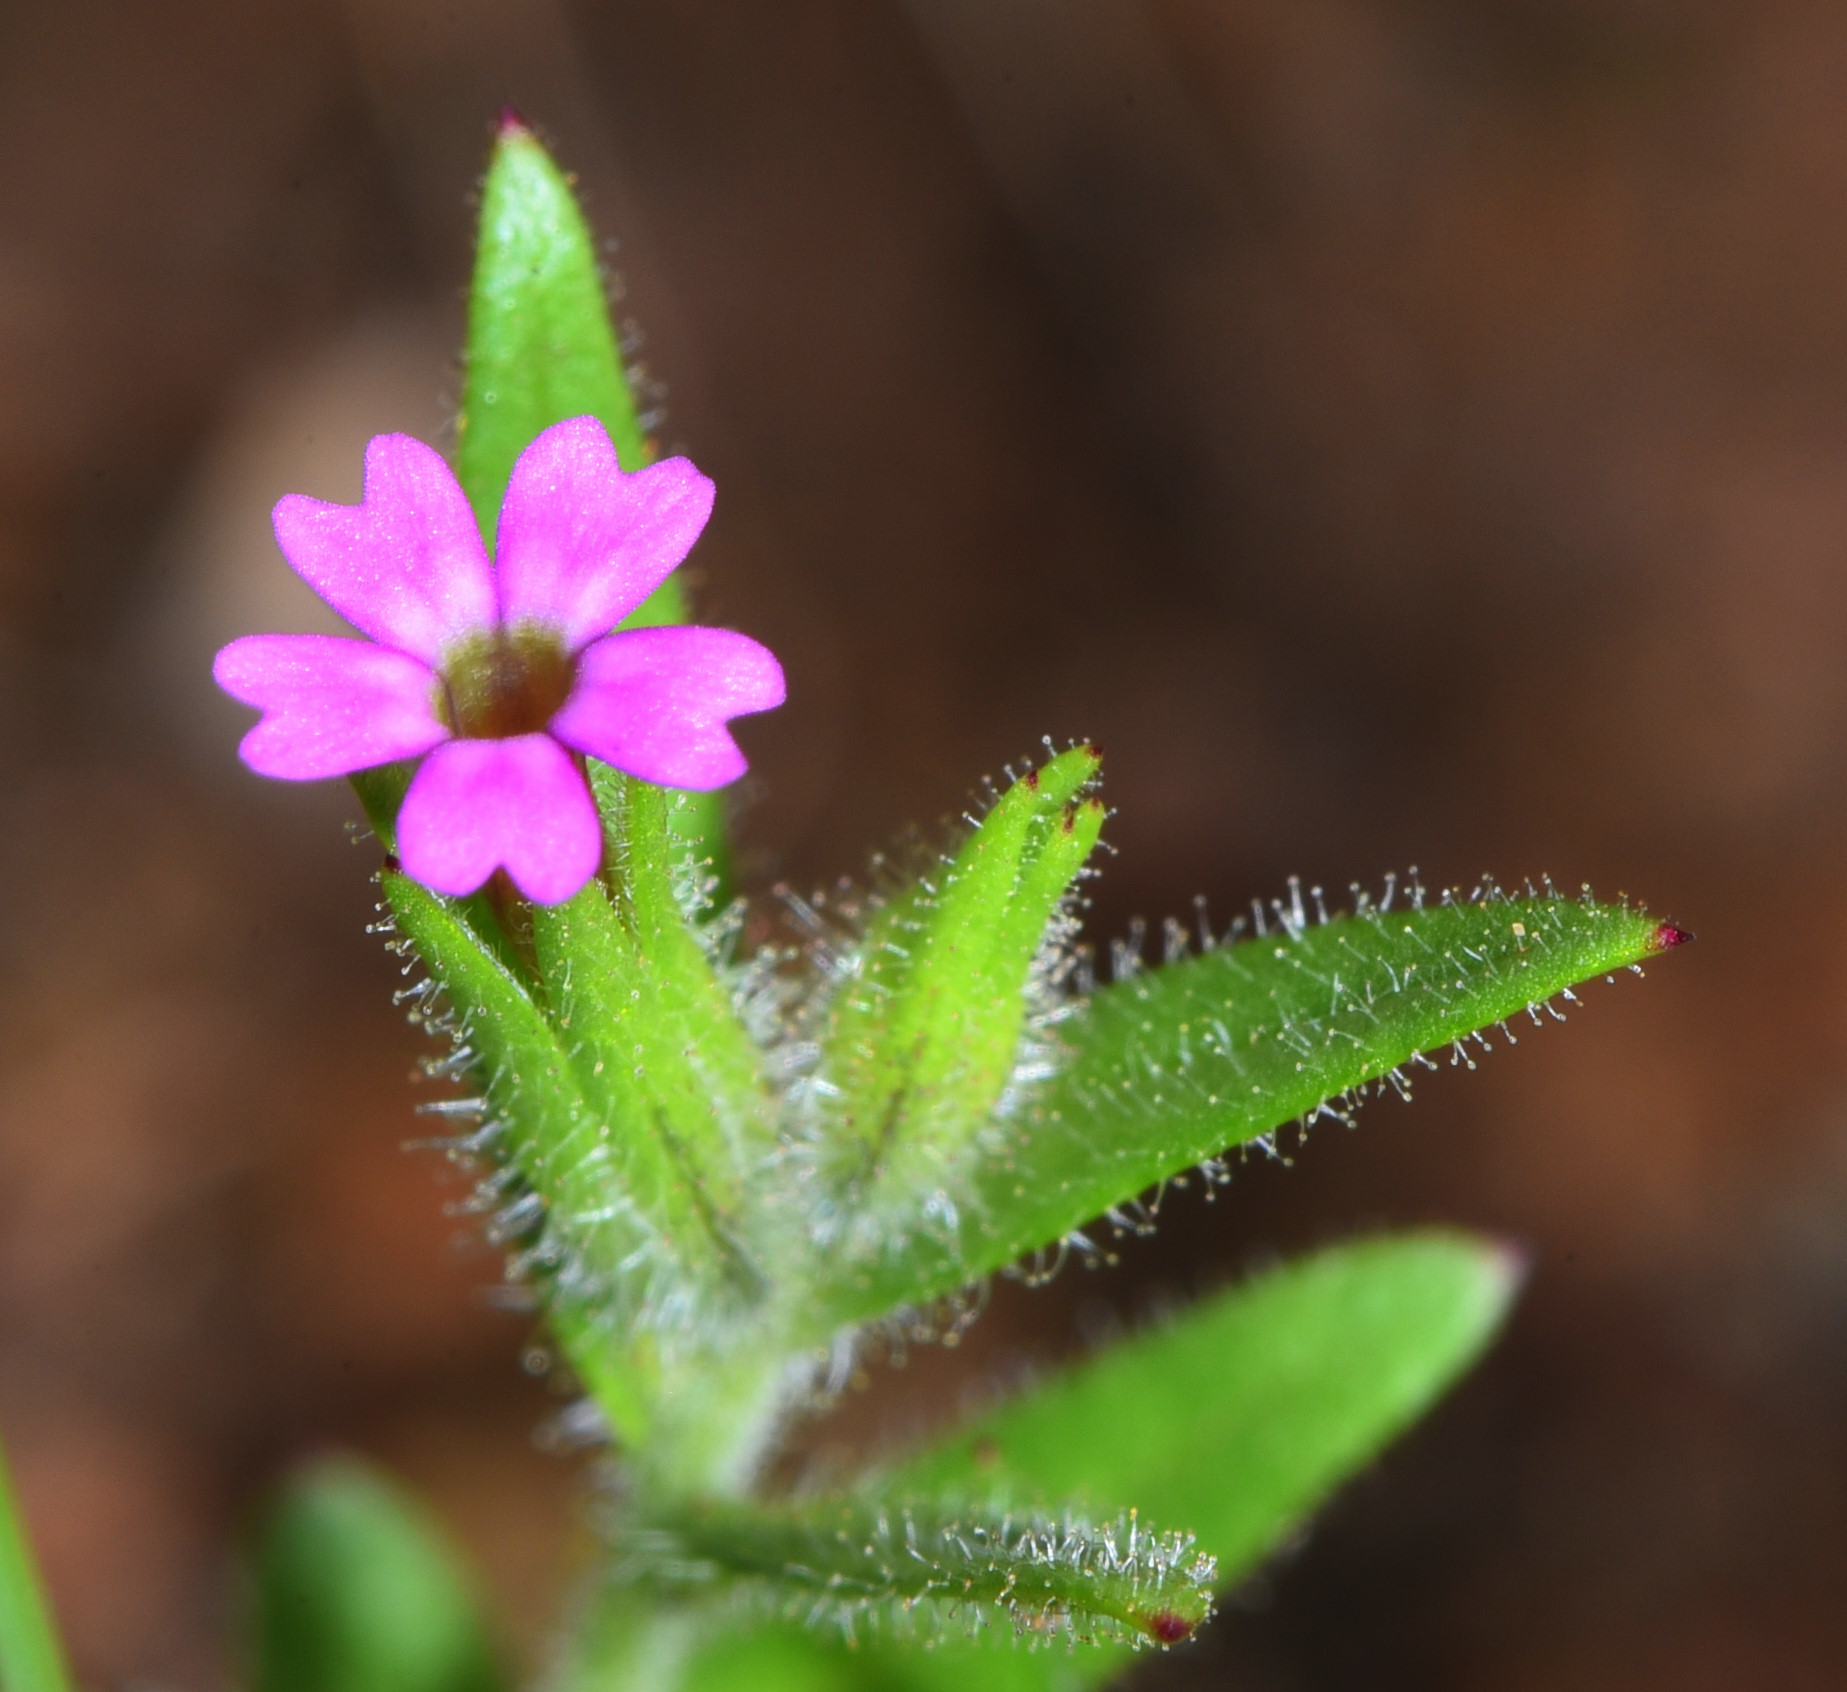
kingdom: Plantae
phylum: Tracheophyta
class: Magnoliopsida
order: Ericales
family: Polemoniaceae
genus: Phlox
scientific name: Phlox gracilis
